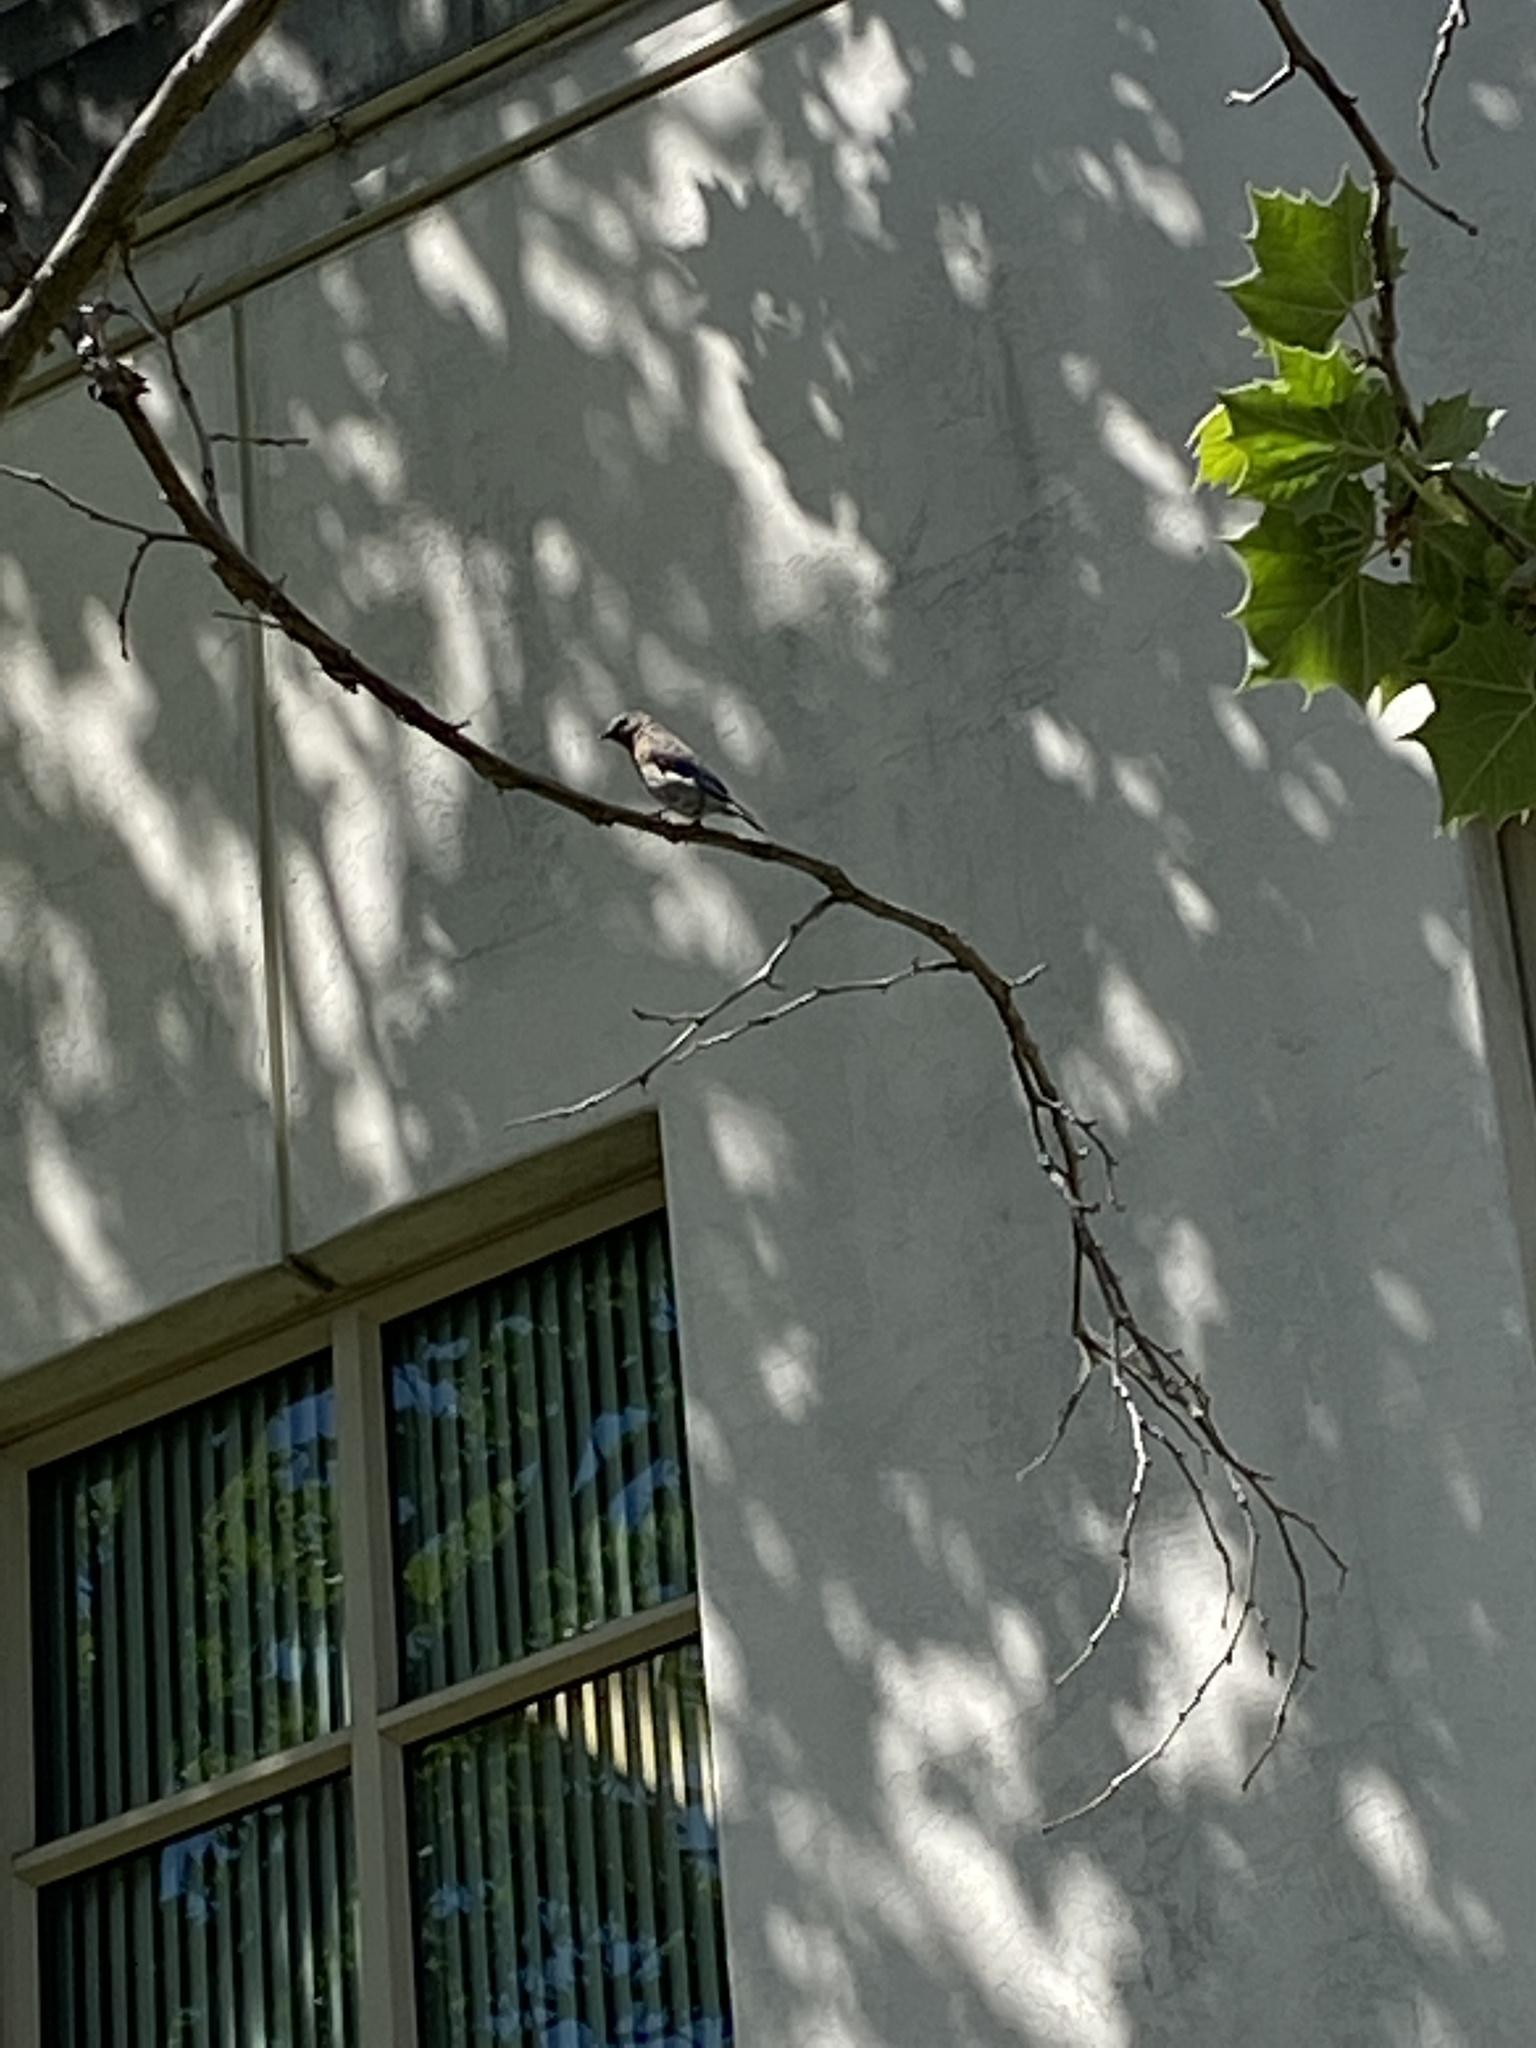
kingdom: Animalia
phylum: Chordata
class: Aves
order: Passeriformes
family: Turdidae
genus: Sialia
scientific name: Sialia mexicana
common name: Western bluebird
